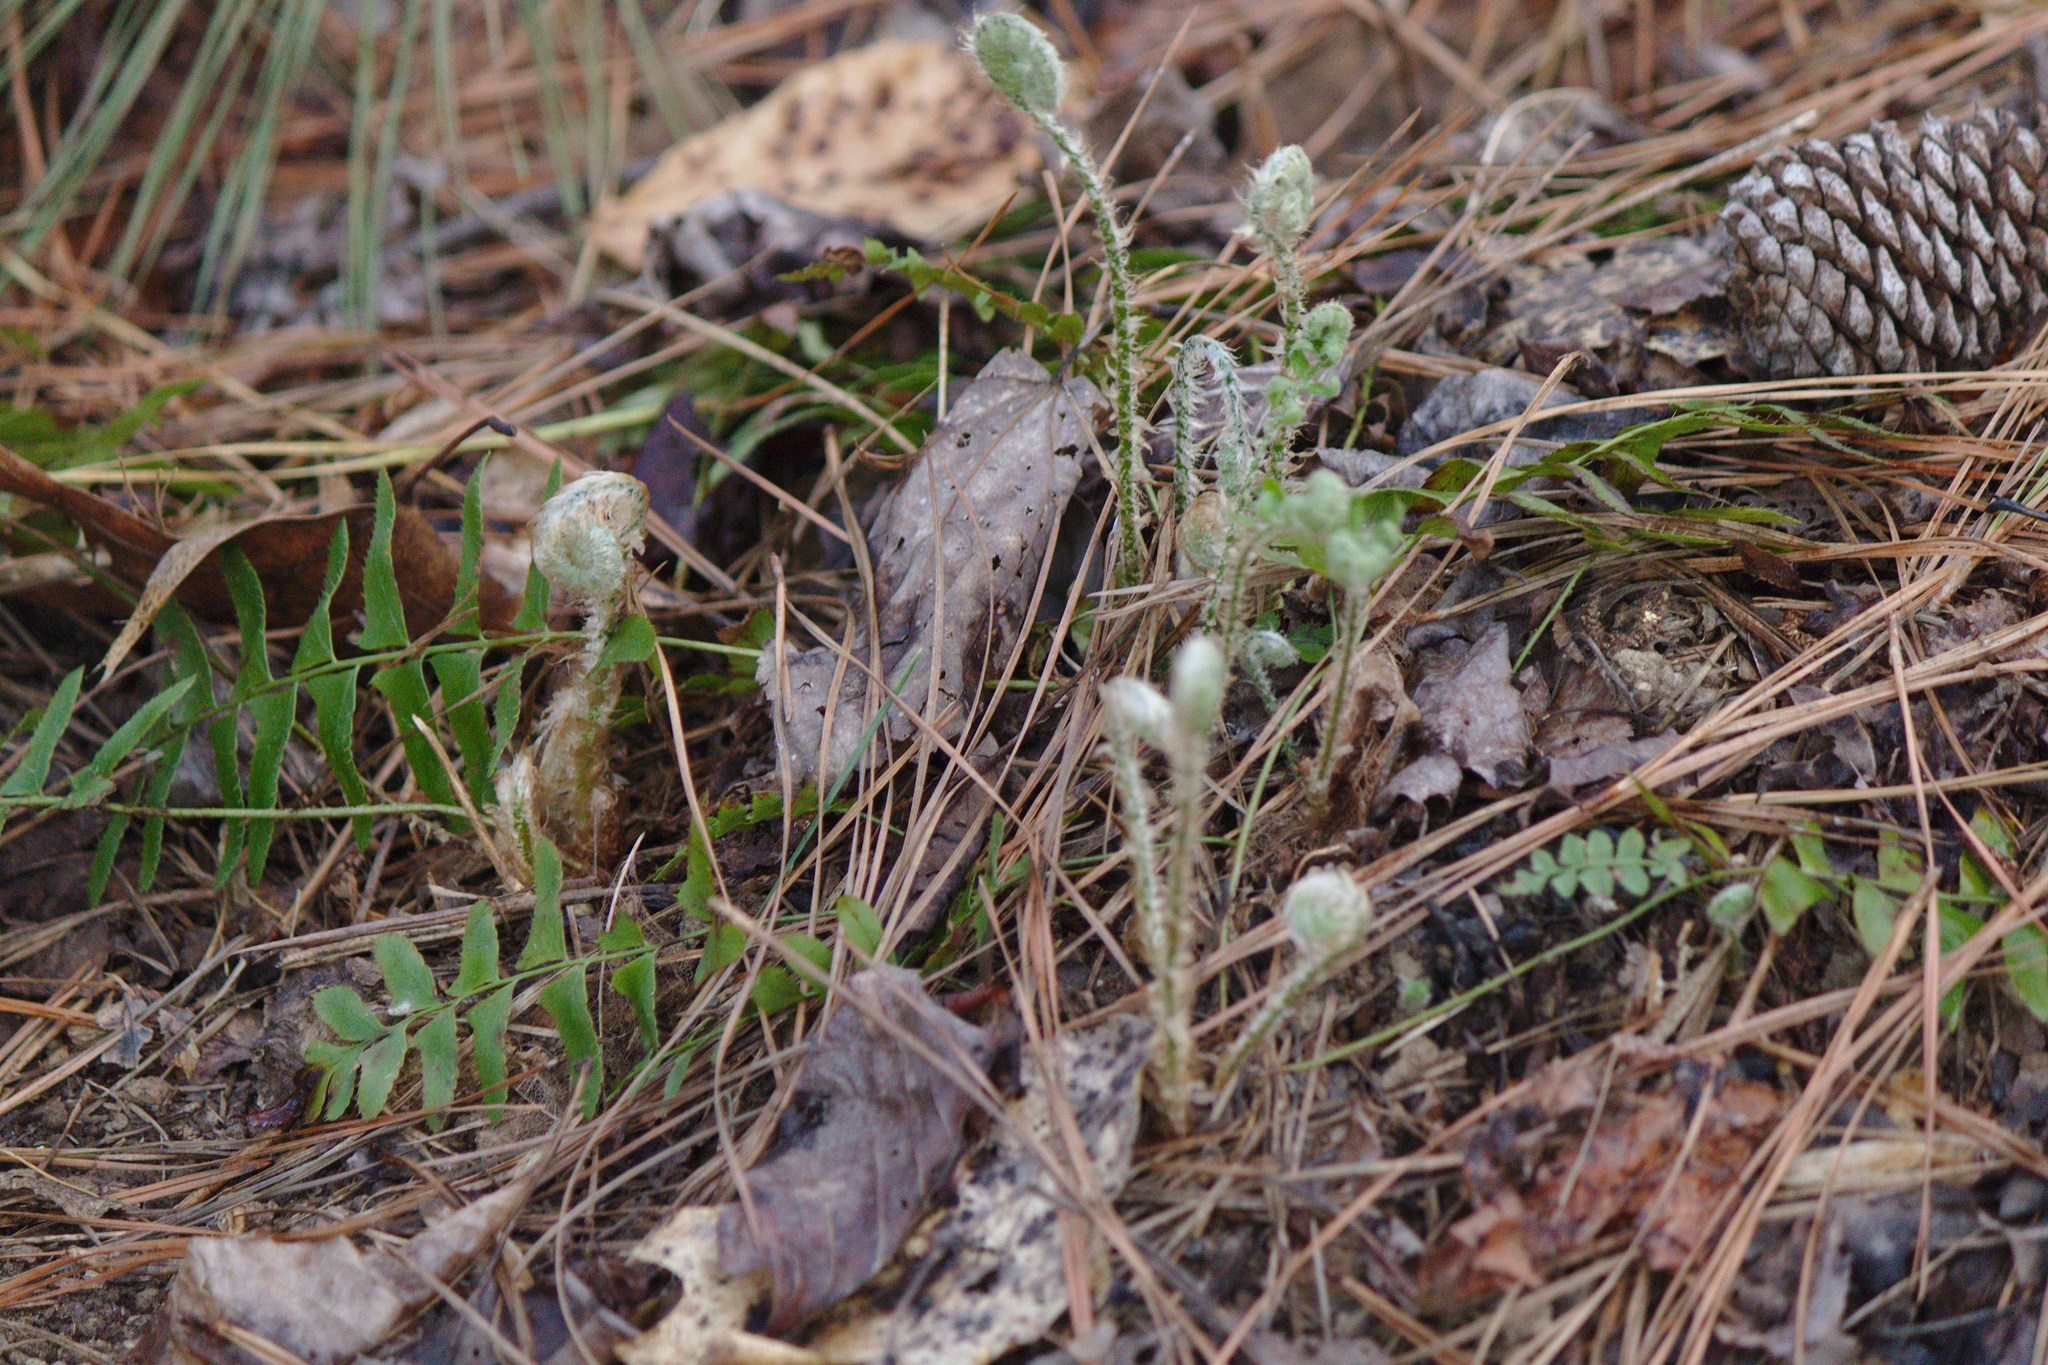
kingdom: Plantae
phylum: Tracheophyta
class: Polypodiopsida
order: Polypodiales
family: Dryopteridaceae
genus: Polystichum
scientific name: Polystichum acrostichoides
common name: Christmas fern
